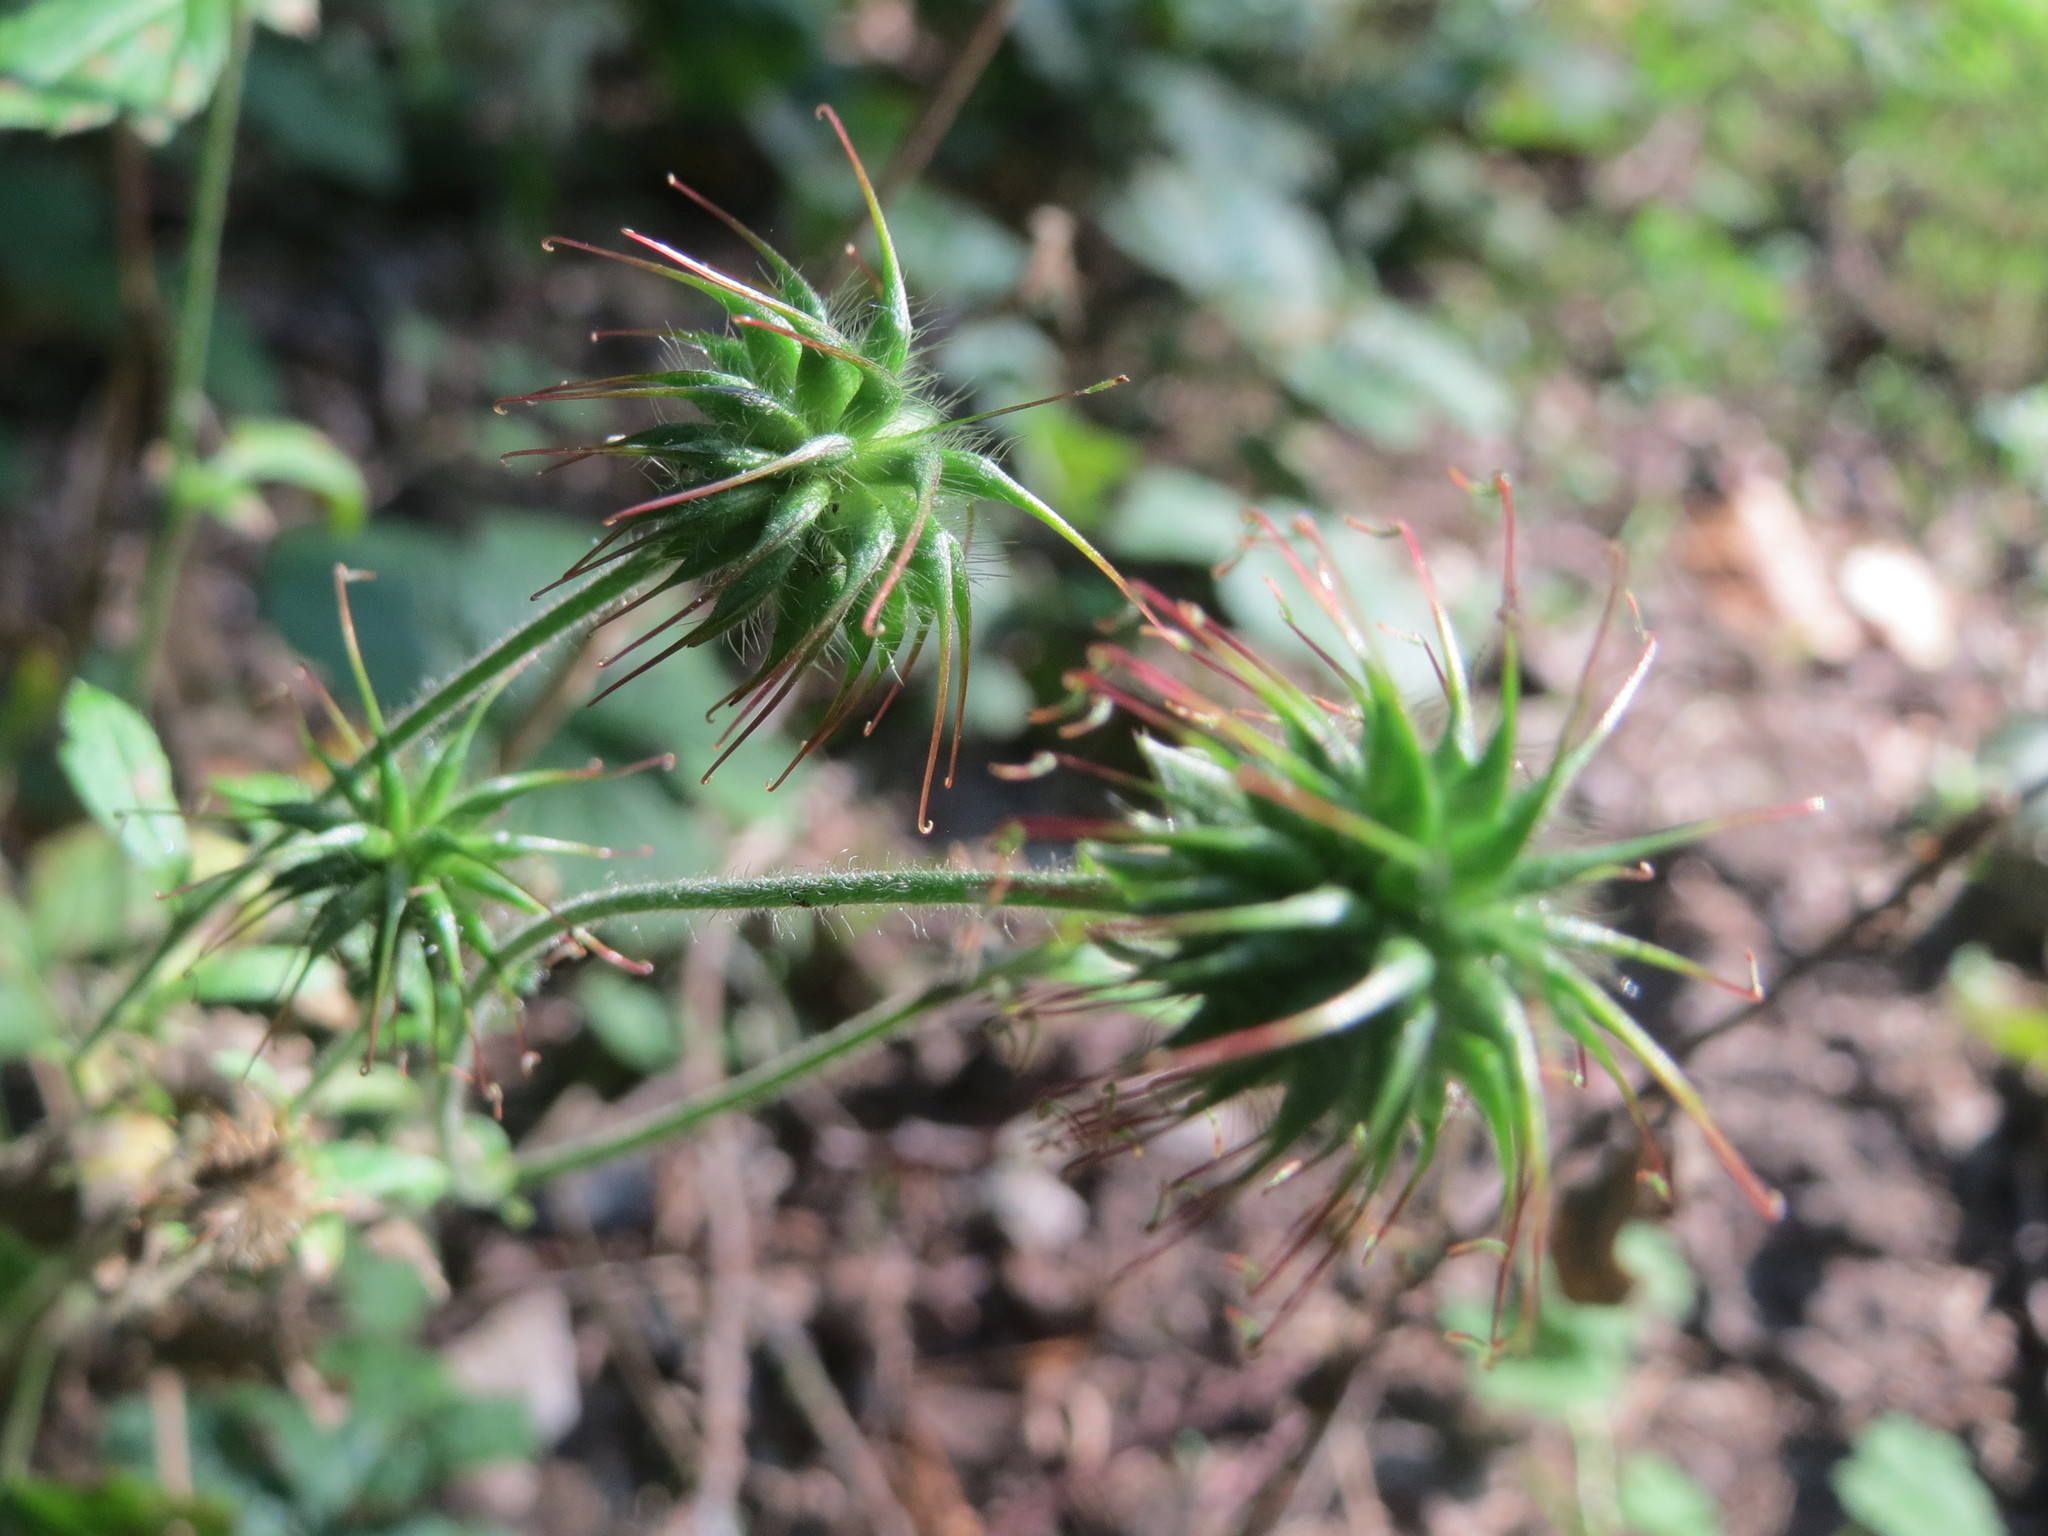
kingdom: Plantae
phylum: Tracheophyta
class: Magnoliopsida
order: Rosales
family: Rosaceae
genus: Geum
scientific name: Geum urbanum
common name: Wood avens
